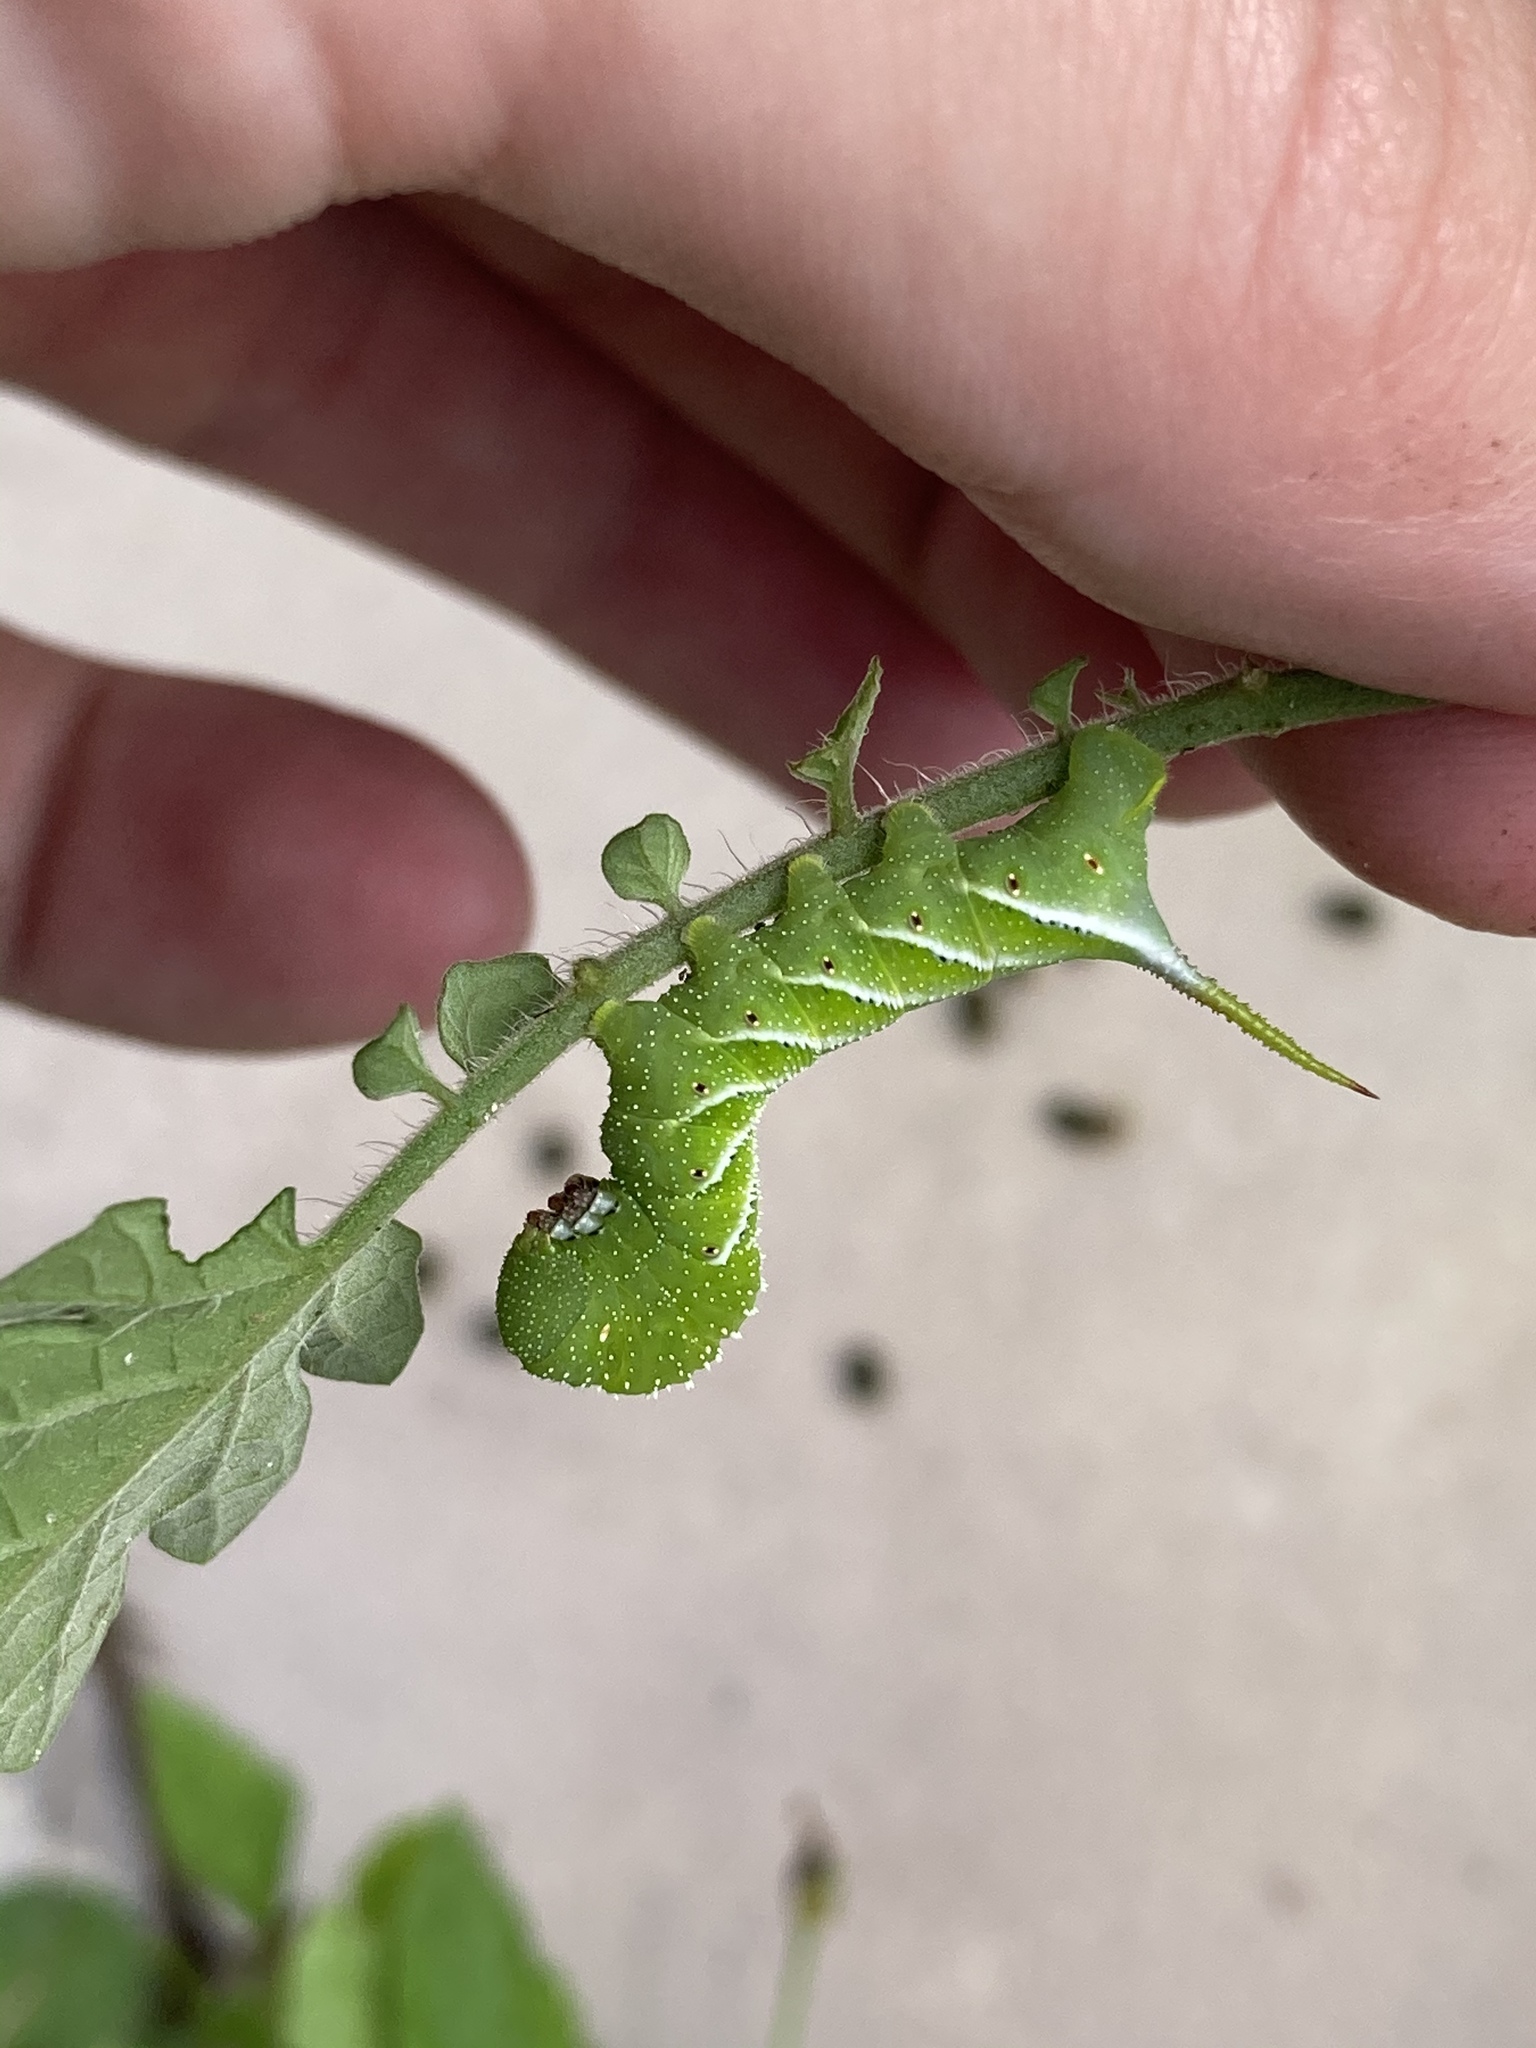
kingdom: Animalia
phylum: Arthropoda
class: Insecta
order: Lepidoptera
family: Sphingidae
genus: Manduca
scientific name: Manduca sexta
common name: Carolina sphinx
